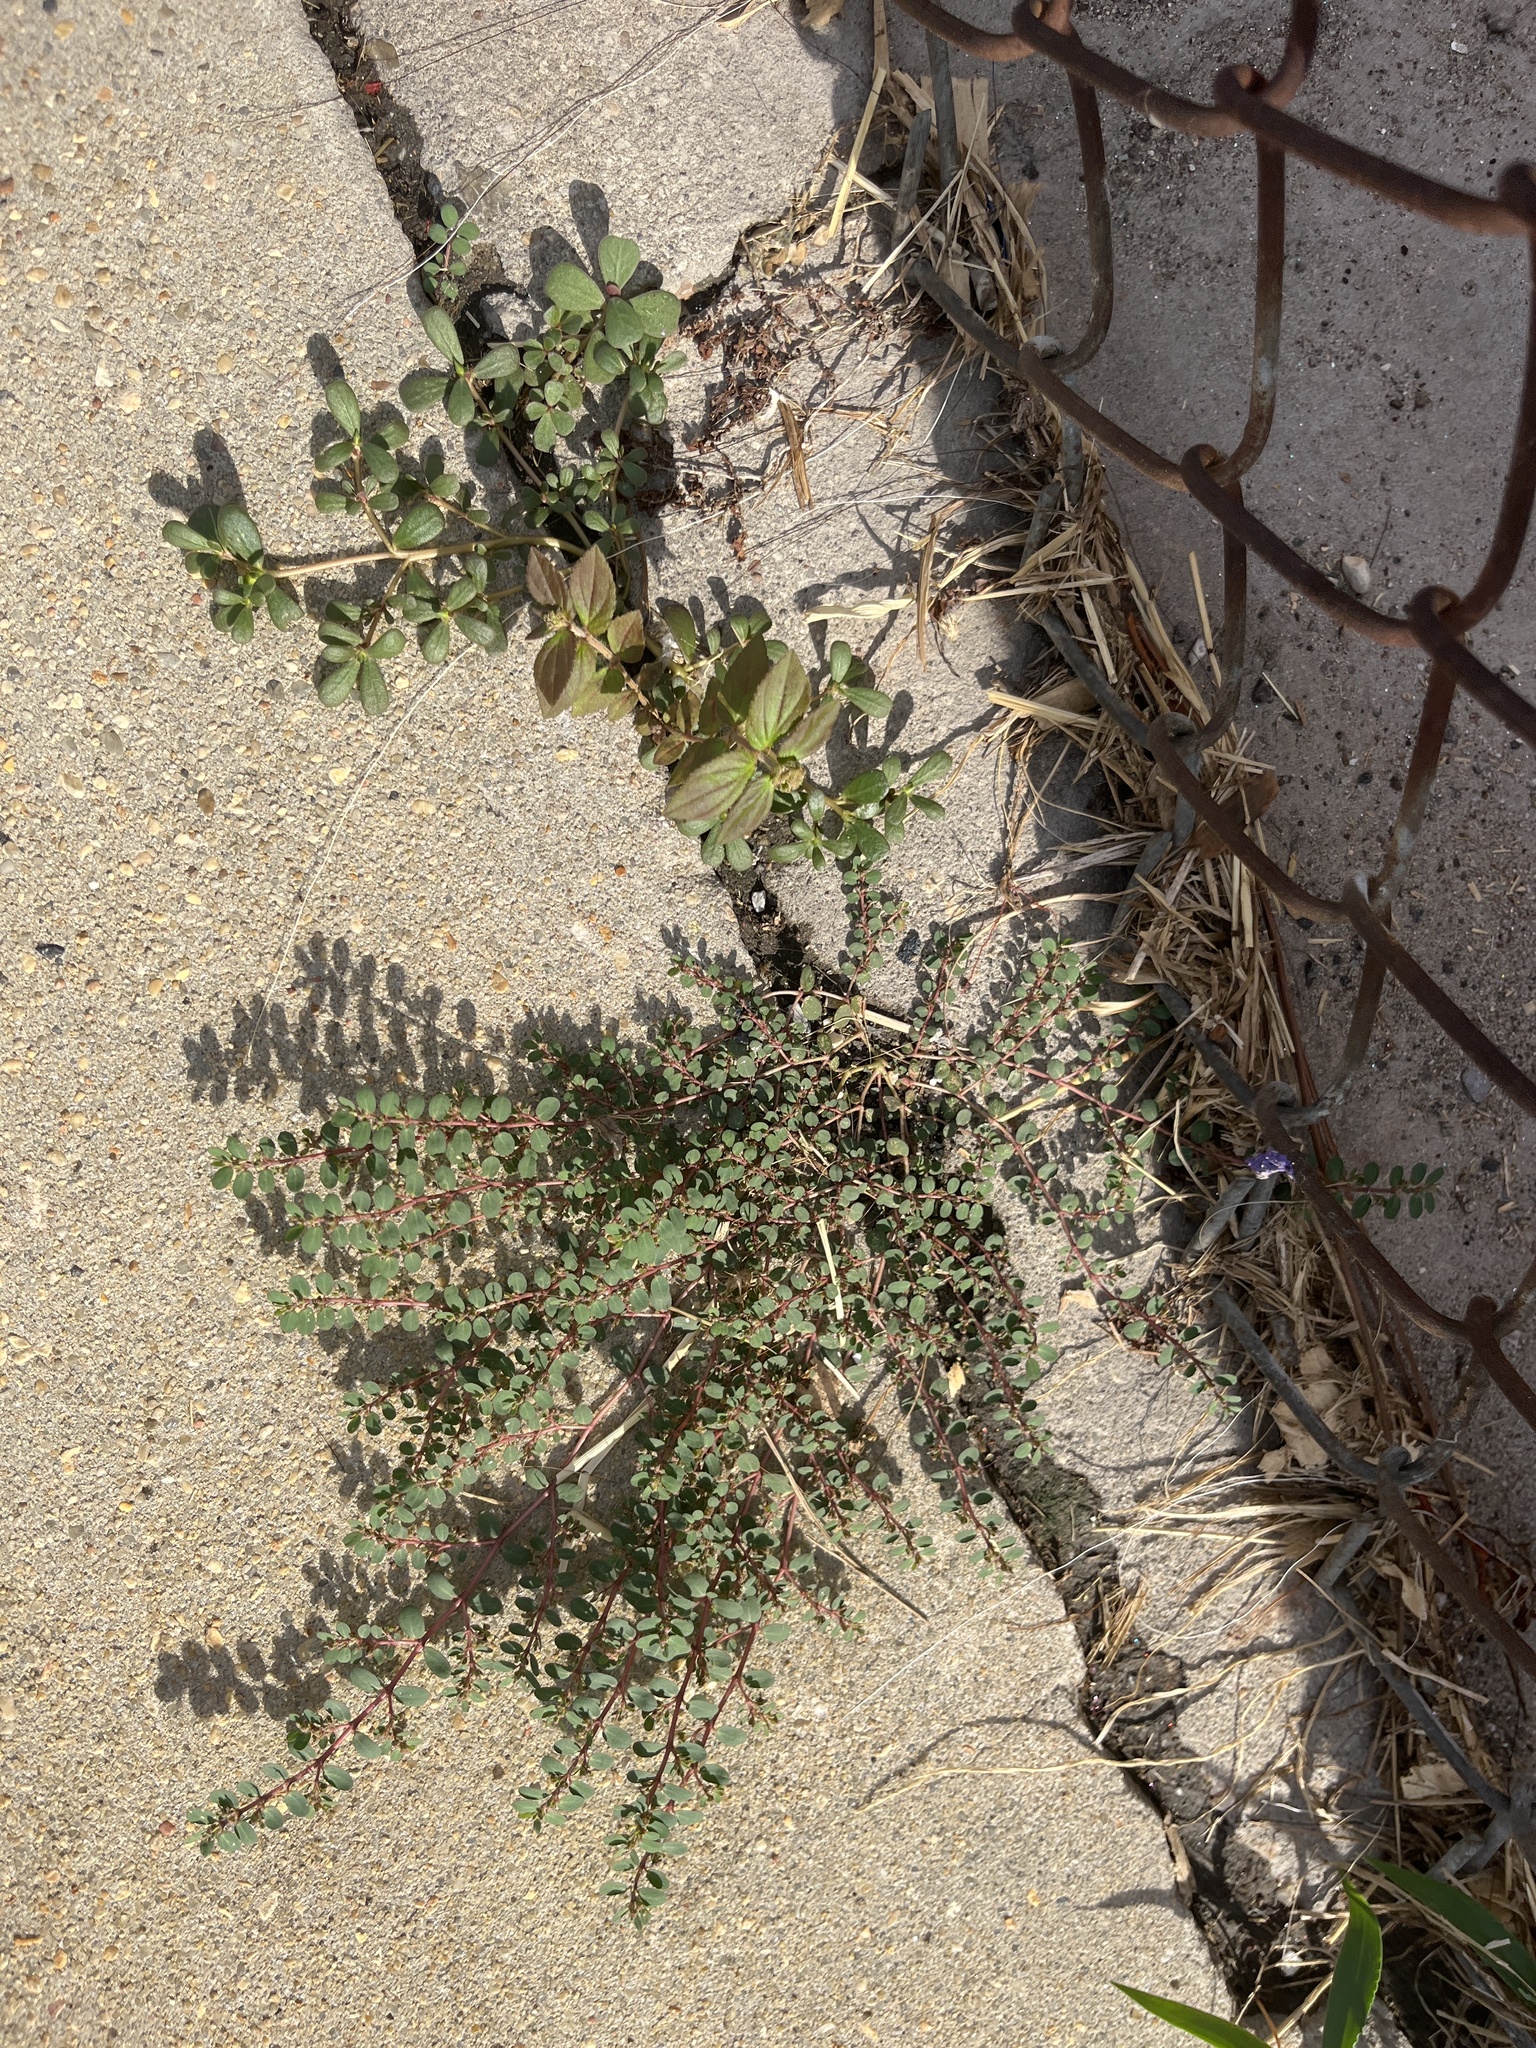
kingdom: Plantae
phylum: Tracheophyta
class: Magnoliopsida
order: Malpighiales
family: Euphorbiaceae
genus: Euphorbia
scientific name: Euphorbia prostrata
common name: Prostrate sandmat
